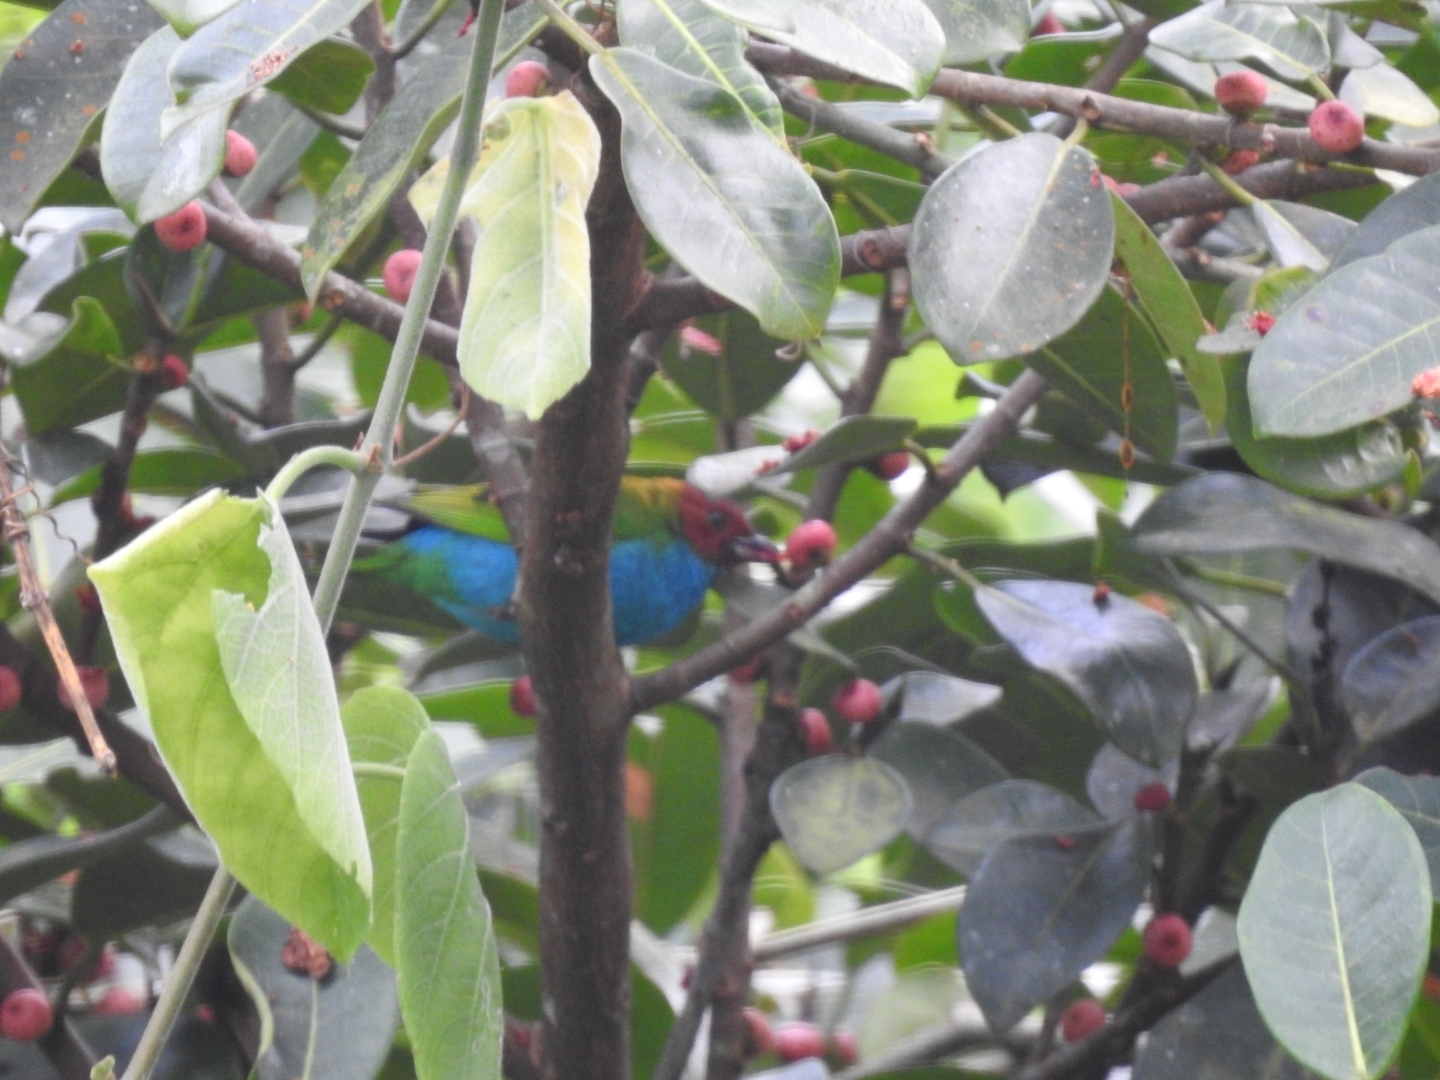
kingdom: Animalia
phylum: Chordata
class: Aves
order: Passeriformes
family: Thraupidae
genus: Tangara
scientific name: Tangara gyrola
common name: Bay-headed tanager
